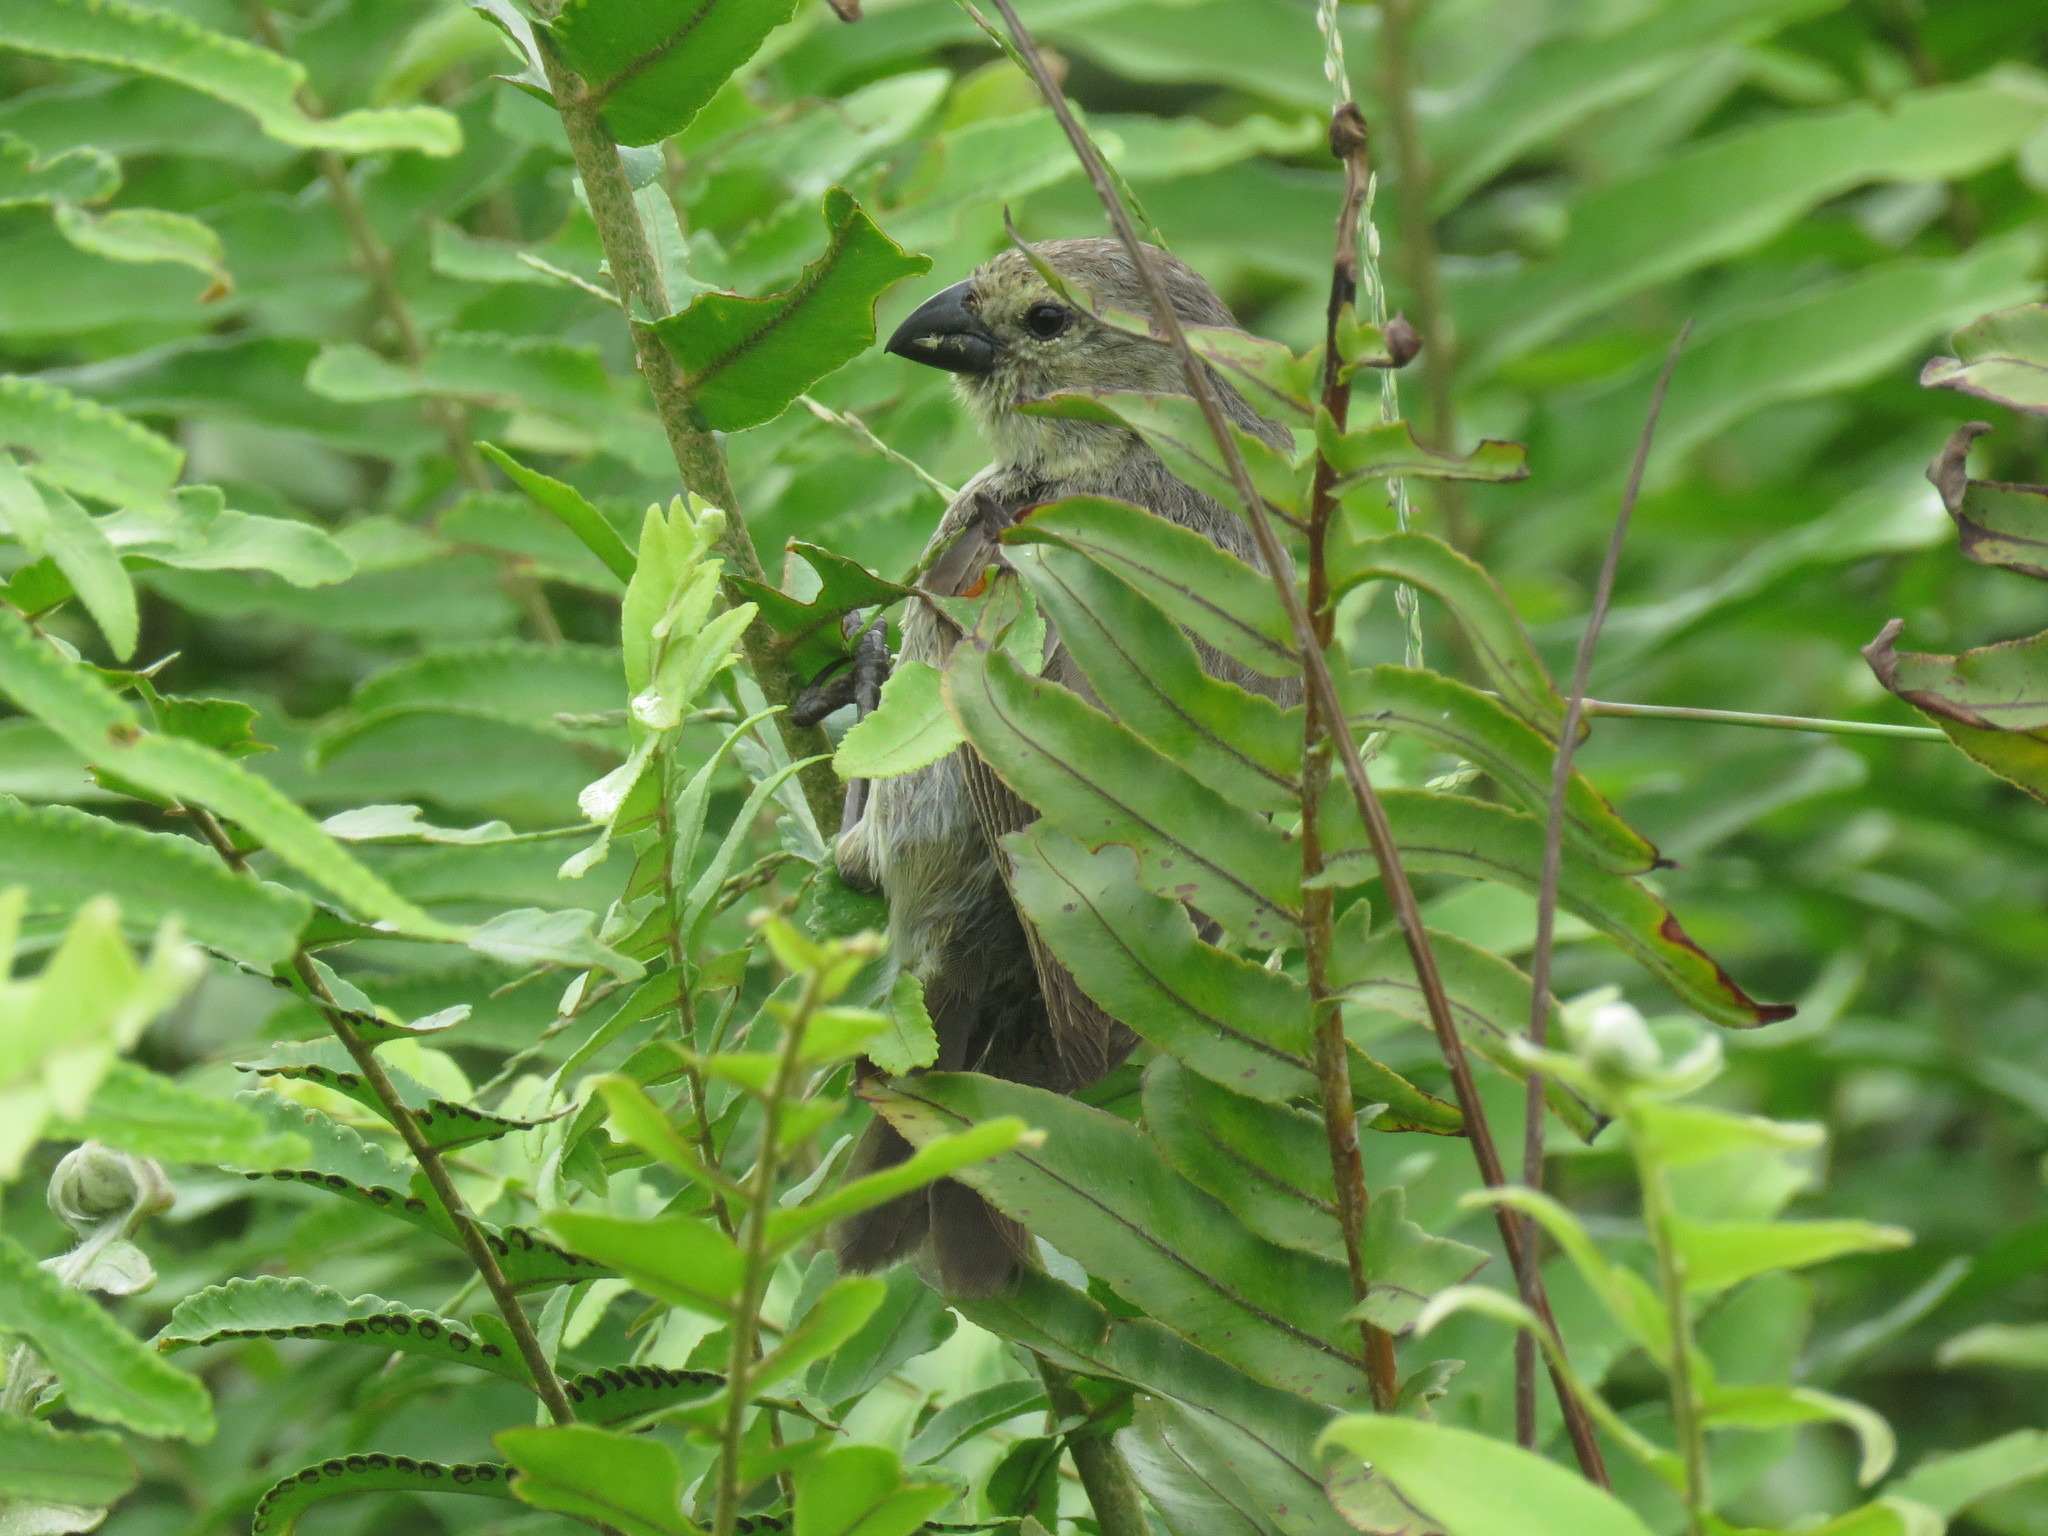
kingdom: Animalia
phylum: Chordata
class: Aves
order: Passeriformes
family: Thraupidae
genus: Camarhynchus
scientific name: Camarhynchus parvulus
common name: Small tree finch
